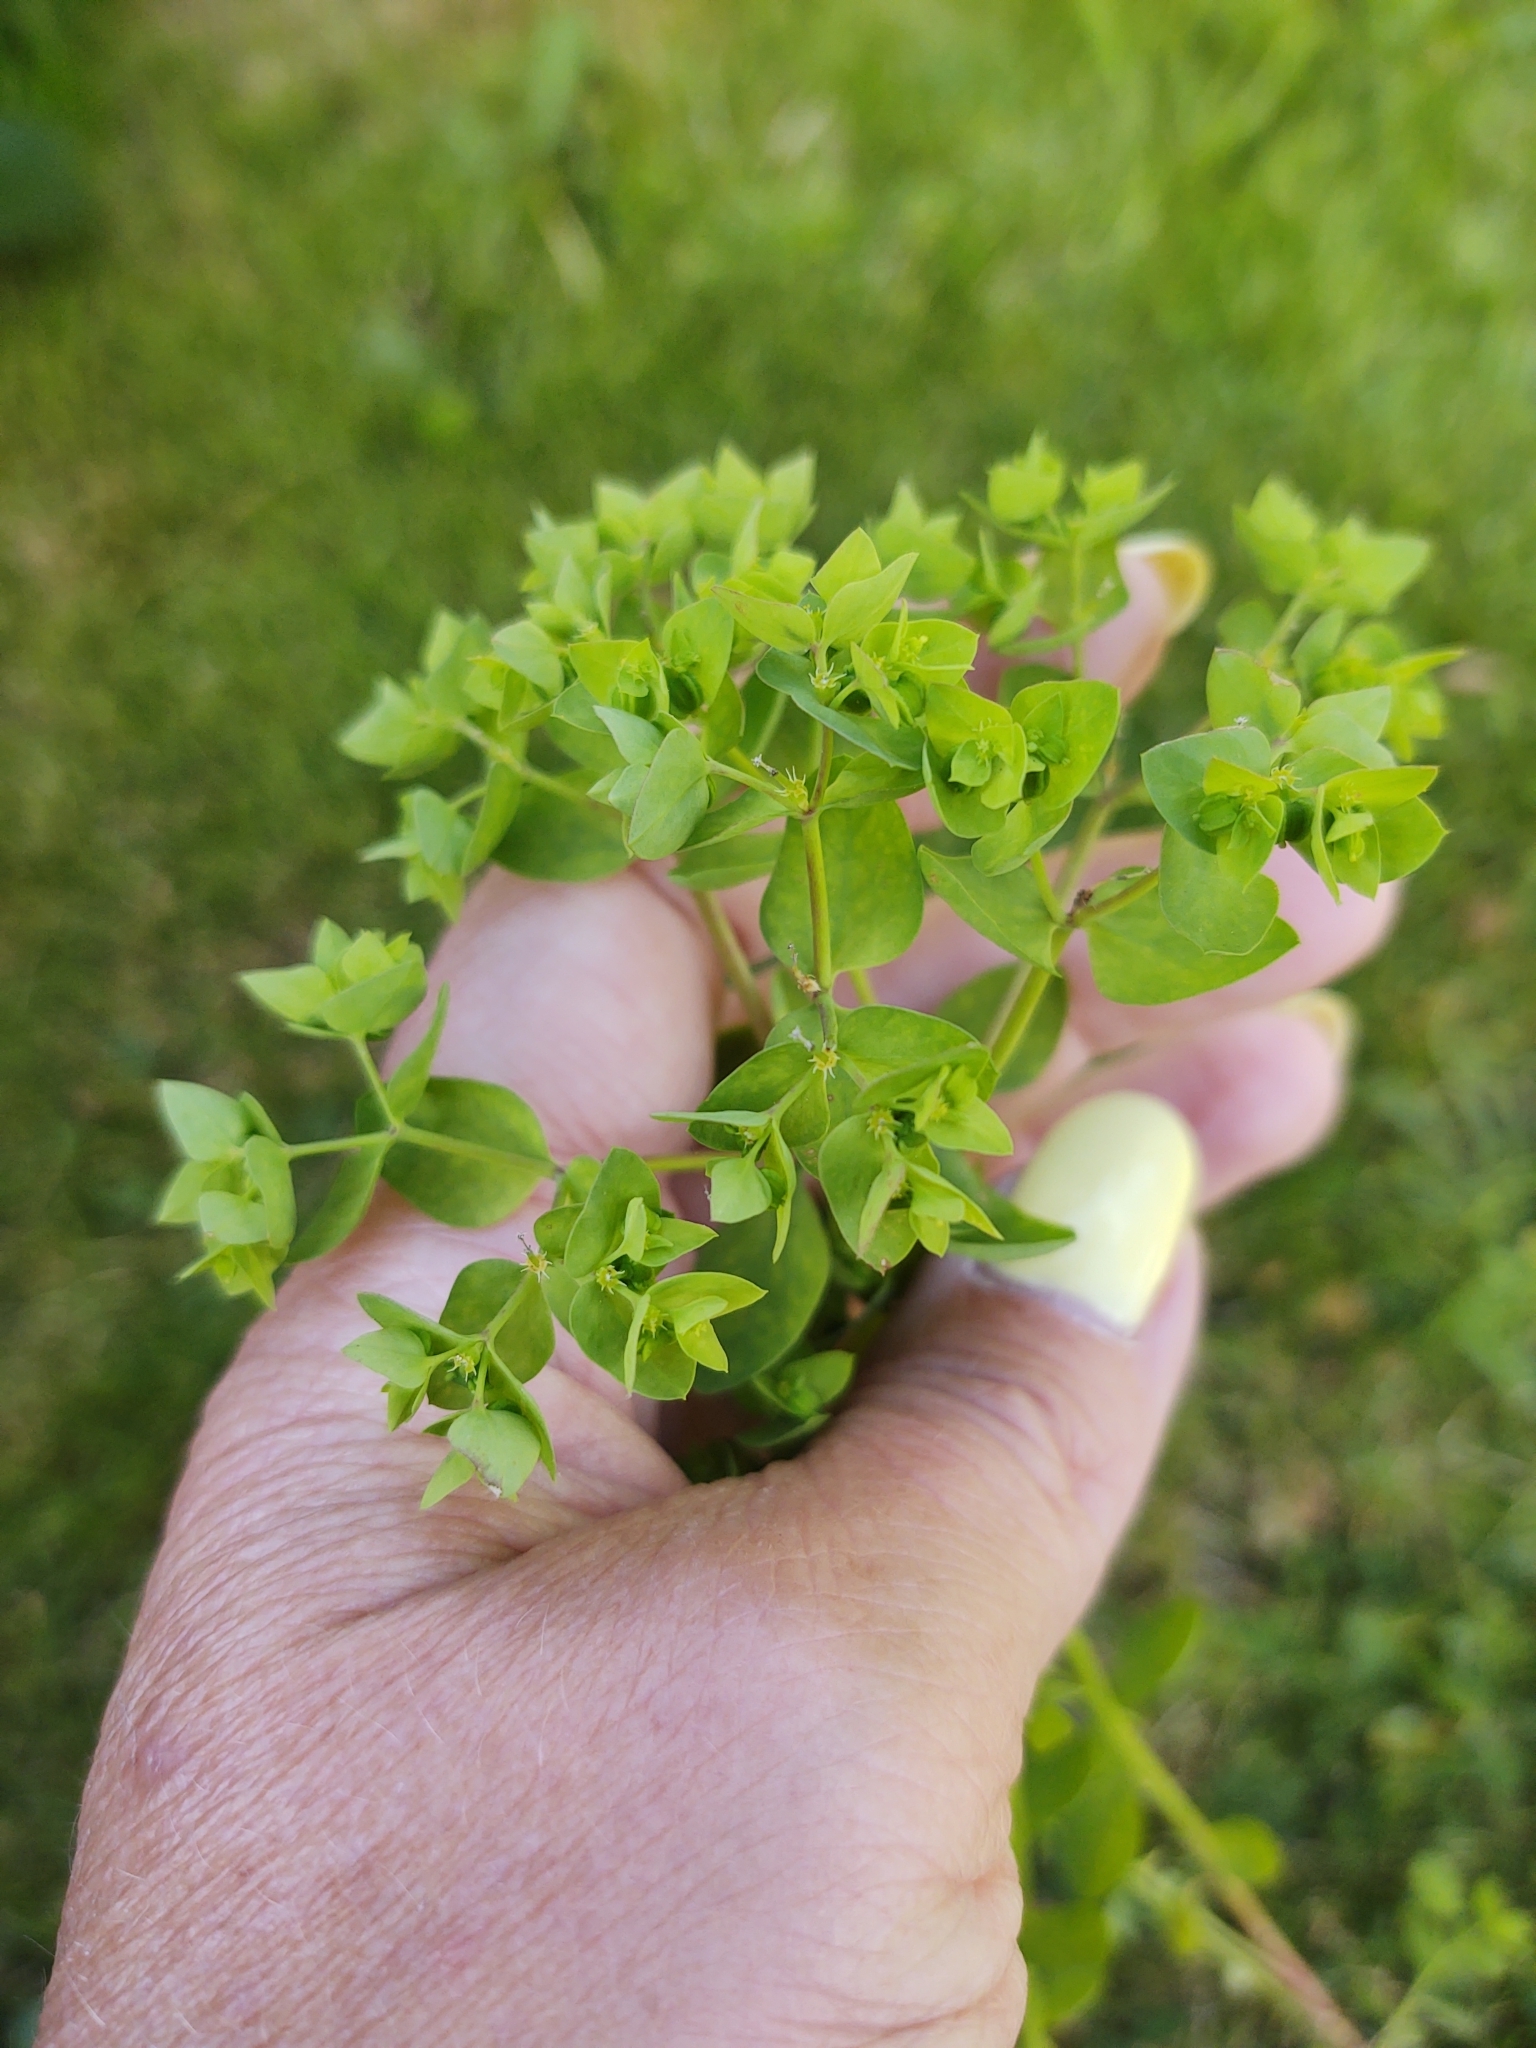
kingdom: Plantae
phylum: Tracheophyta
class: Magnoliopsida
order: Malpighiales
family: Euphorbiaceae
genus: Euphorbia
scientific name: Euphorbia peplus
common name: Petty spurge
